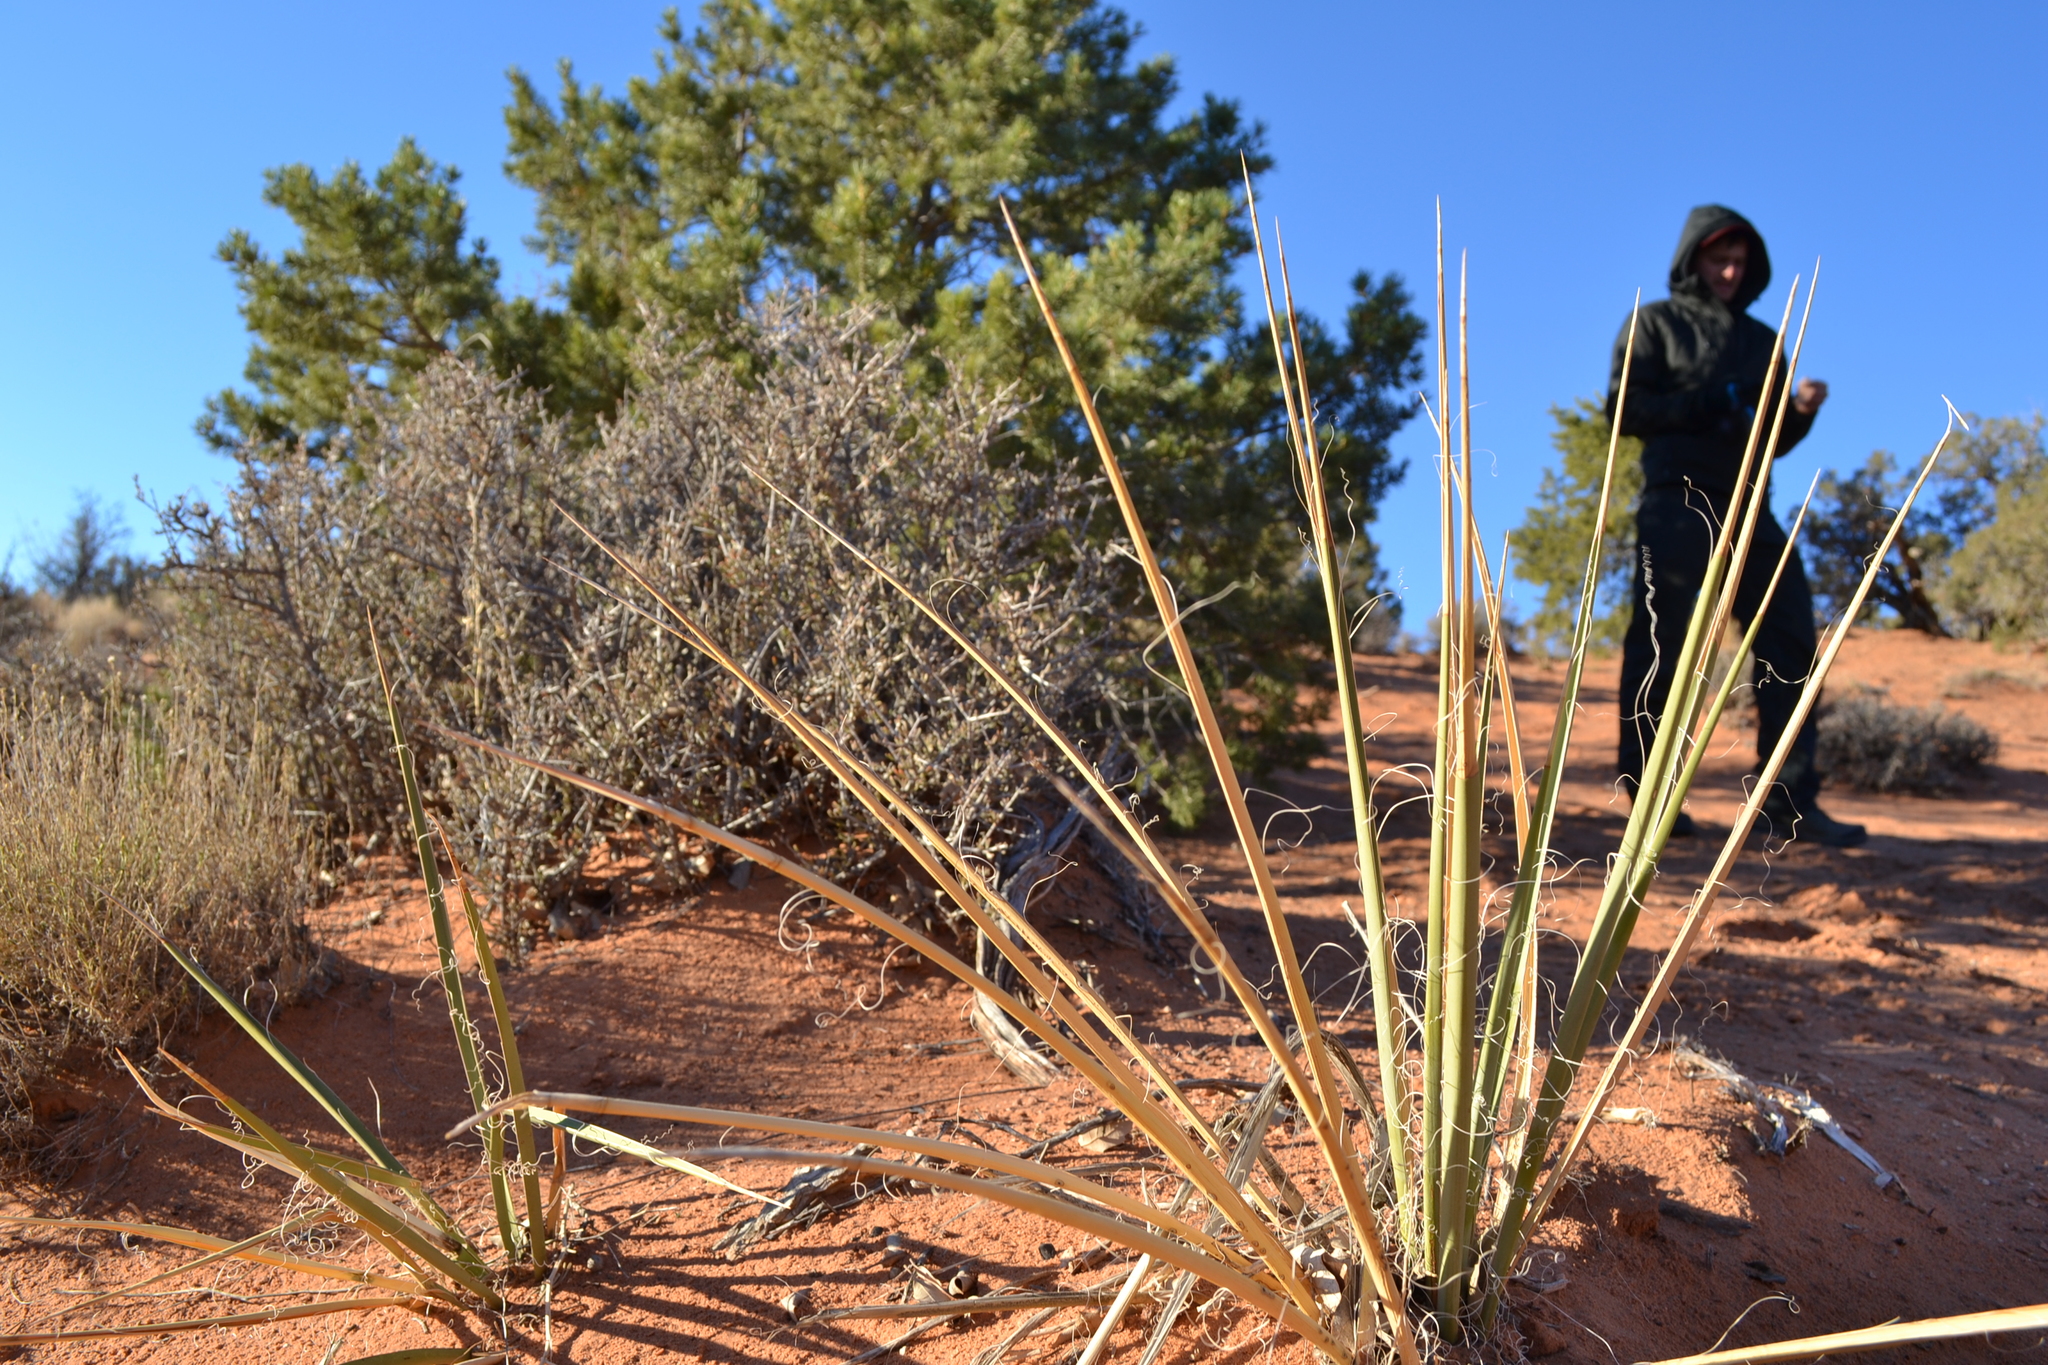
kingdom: Plantae
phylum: Tracheophyta
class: Liliopsida
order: Asparagales
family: Asparagaceae
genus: Yucca
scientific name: Yucca angustissima
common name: Narrowleaf yucca
